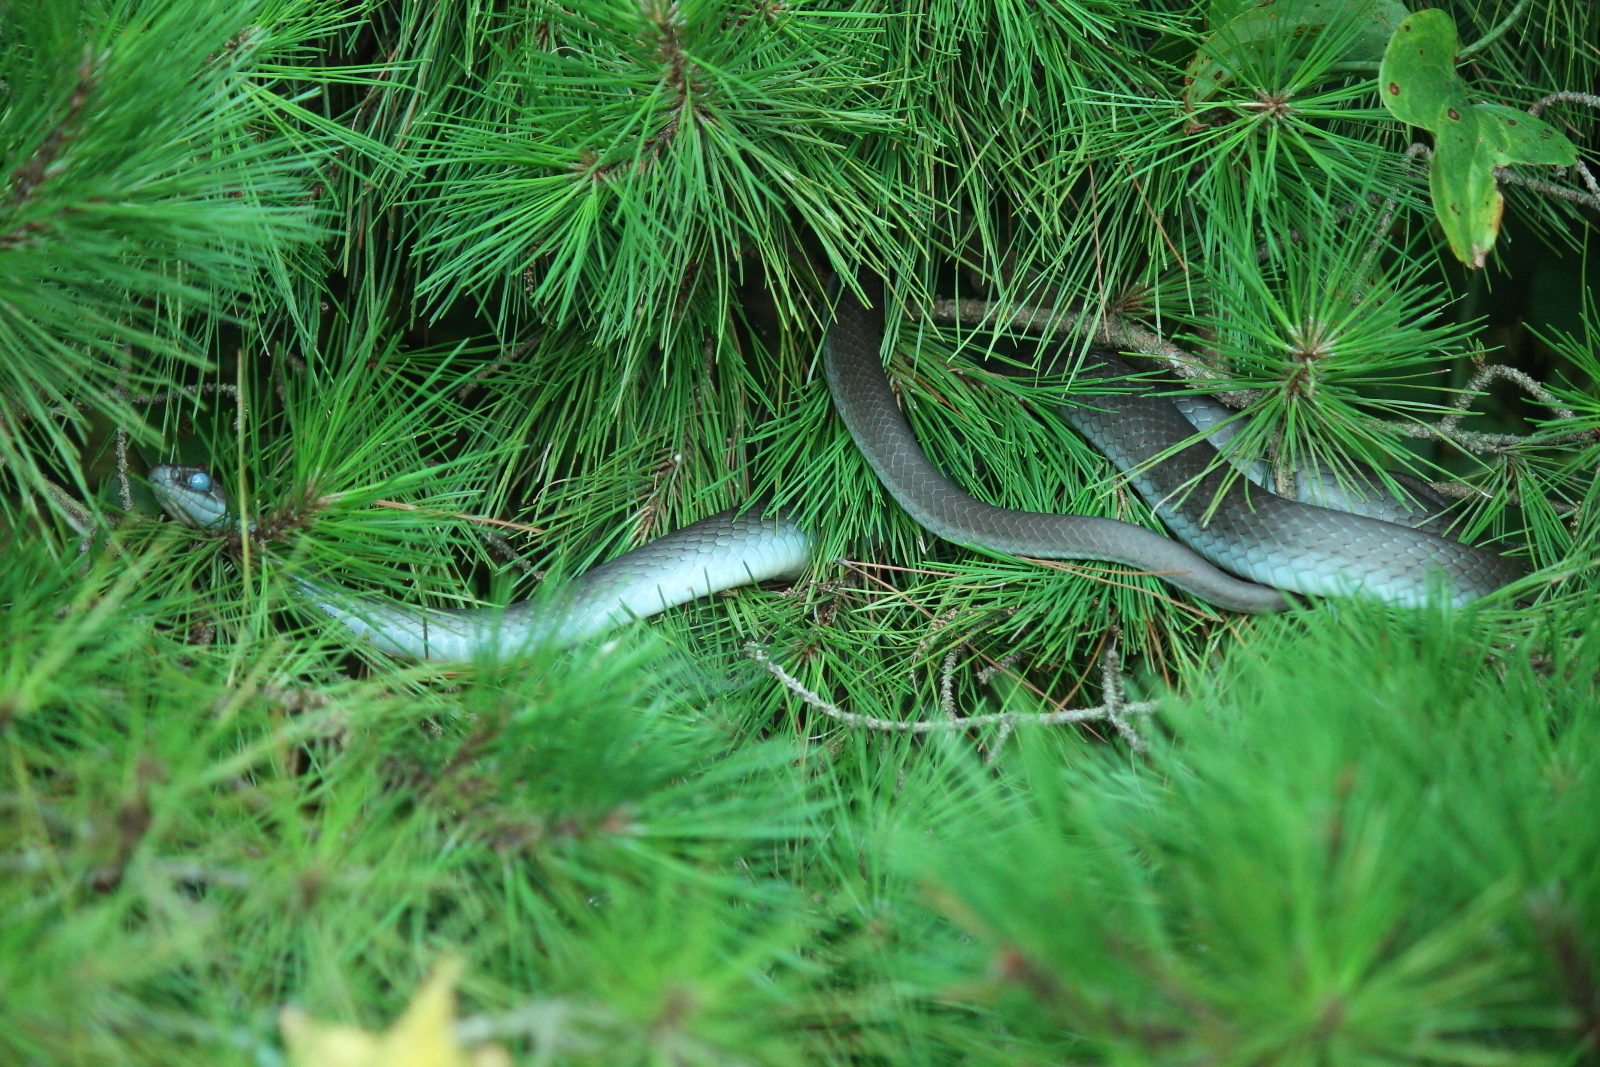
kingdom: Animalia
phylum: Chordata
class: Squamata
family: Colubridae
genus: Coluber
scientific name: Coluber constrictor
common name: Eastern racer
